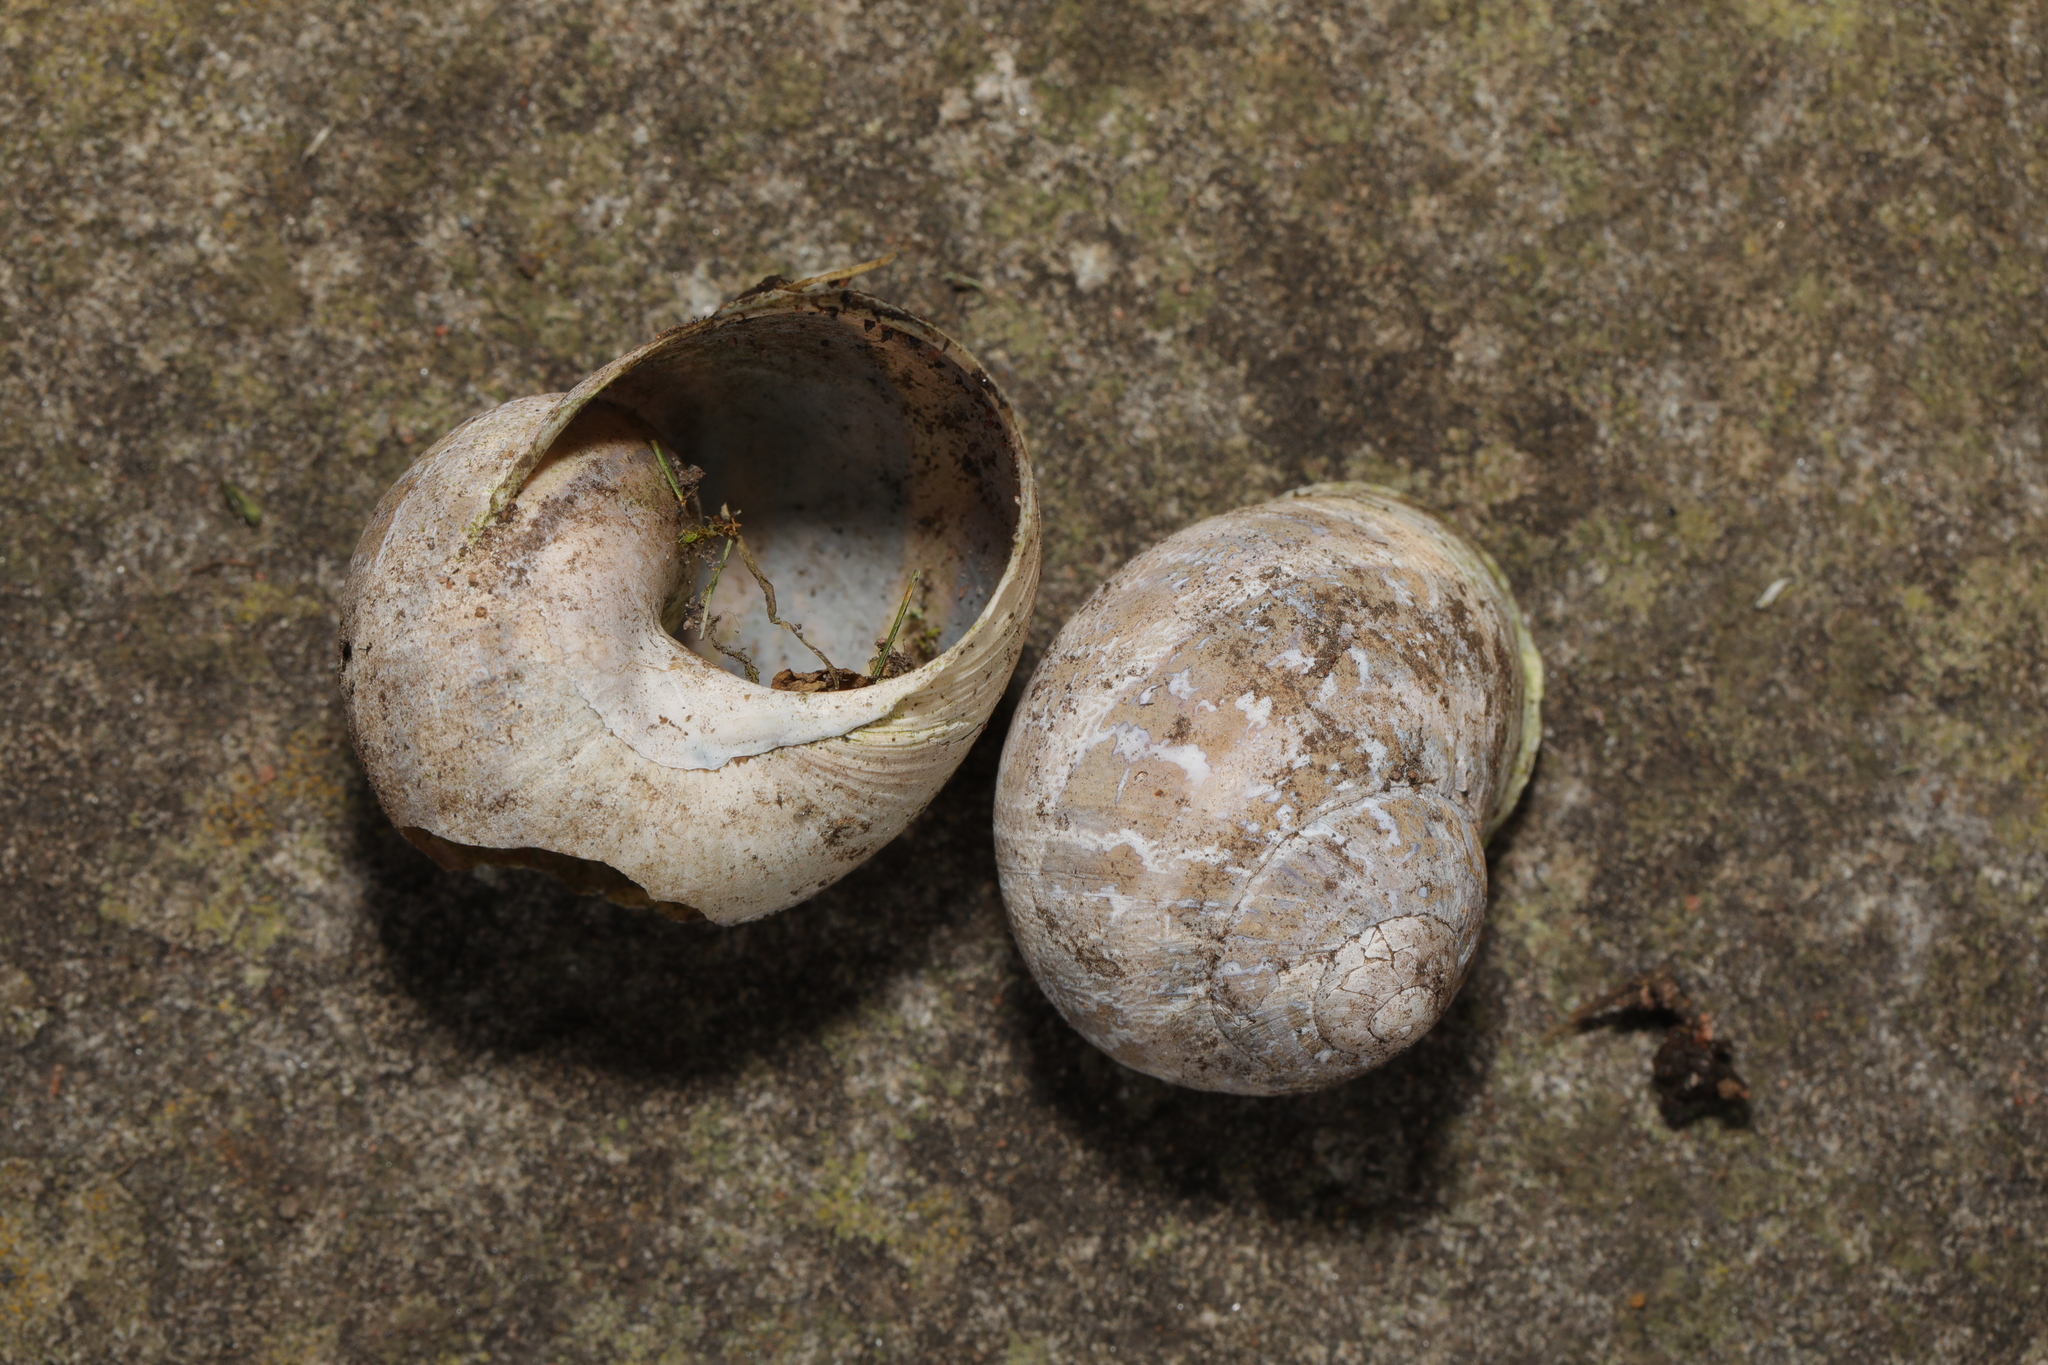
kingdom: Animalia
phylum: Mollusca
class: Gastropoda
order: Stylommatophora
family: Helicidae
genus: Cornu
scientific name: Cornu aspersum
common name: Brown garden snail
